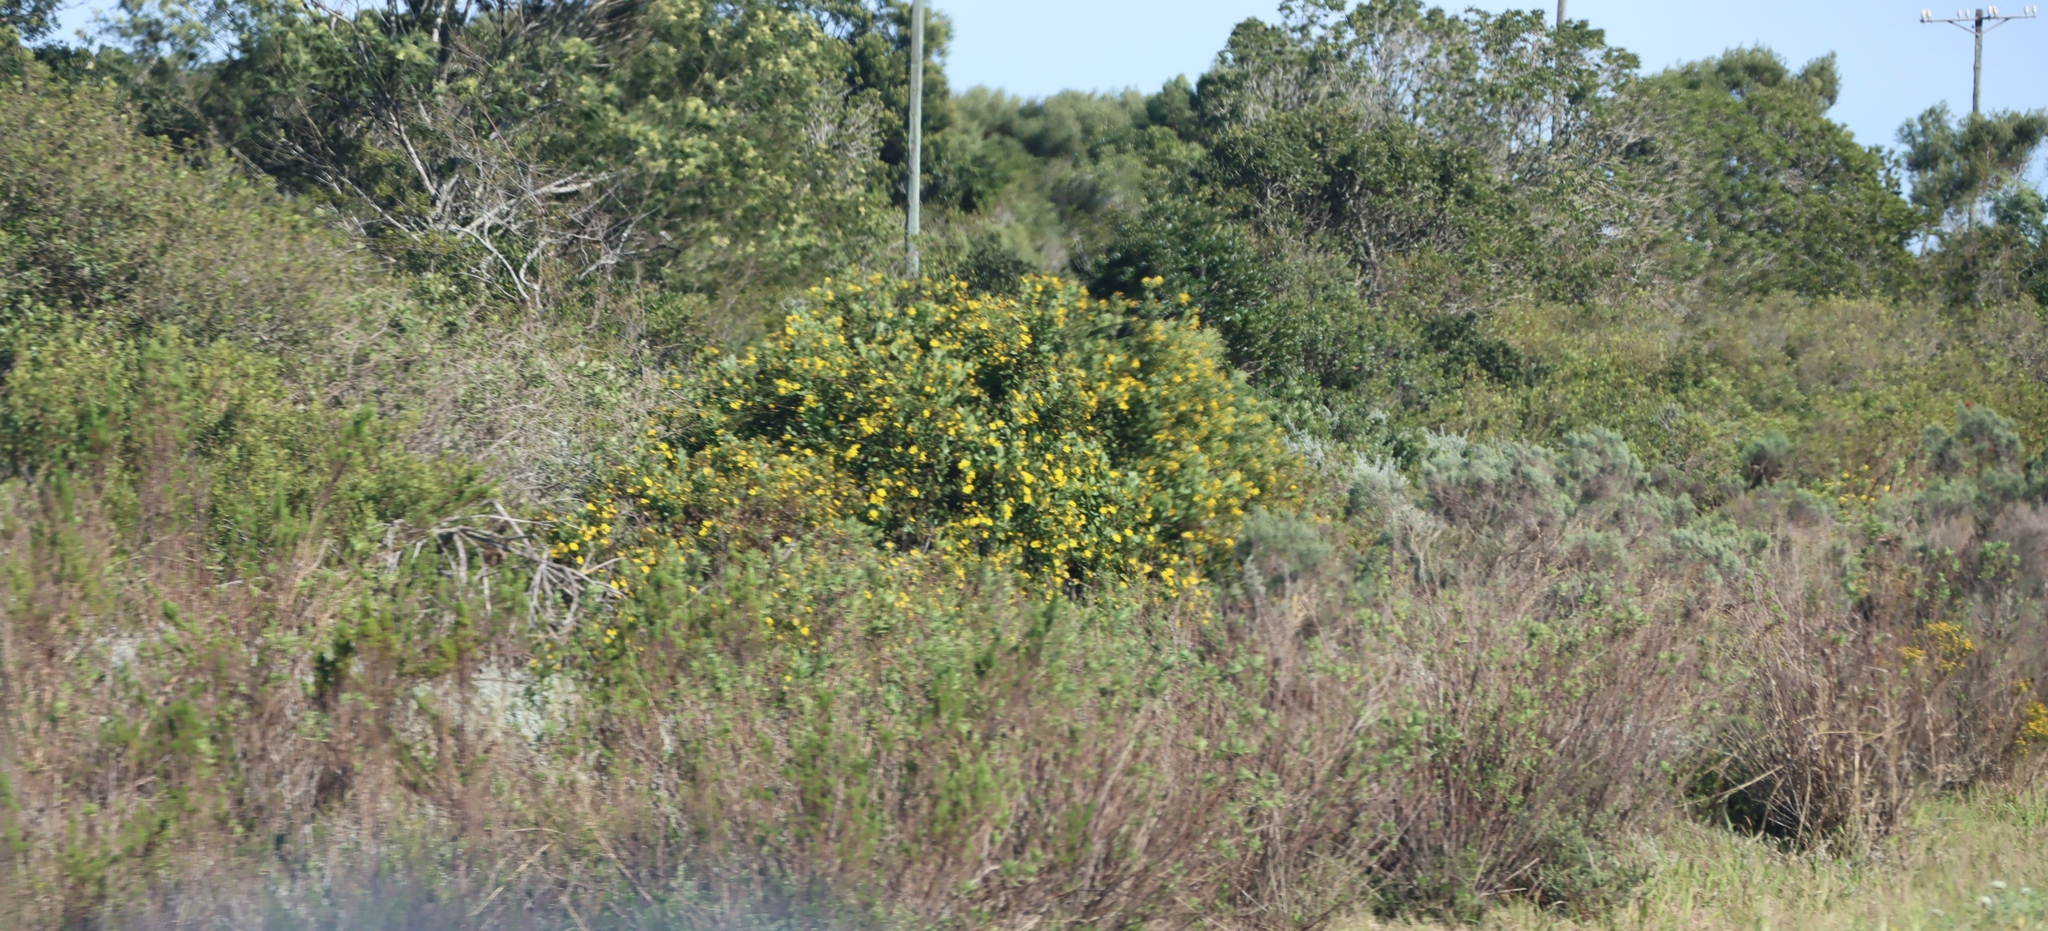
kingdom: Plantae
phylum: Tracheophyta
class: Magnoliopsida
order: Asterales
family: Asteraceae
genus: Osteospermum
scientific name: Osteospermum moniliferum
